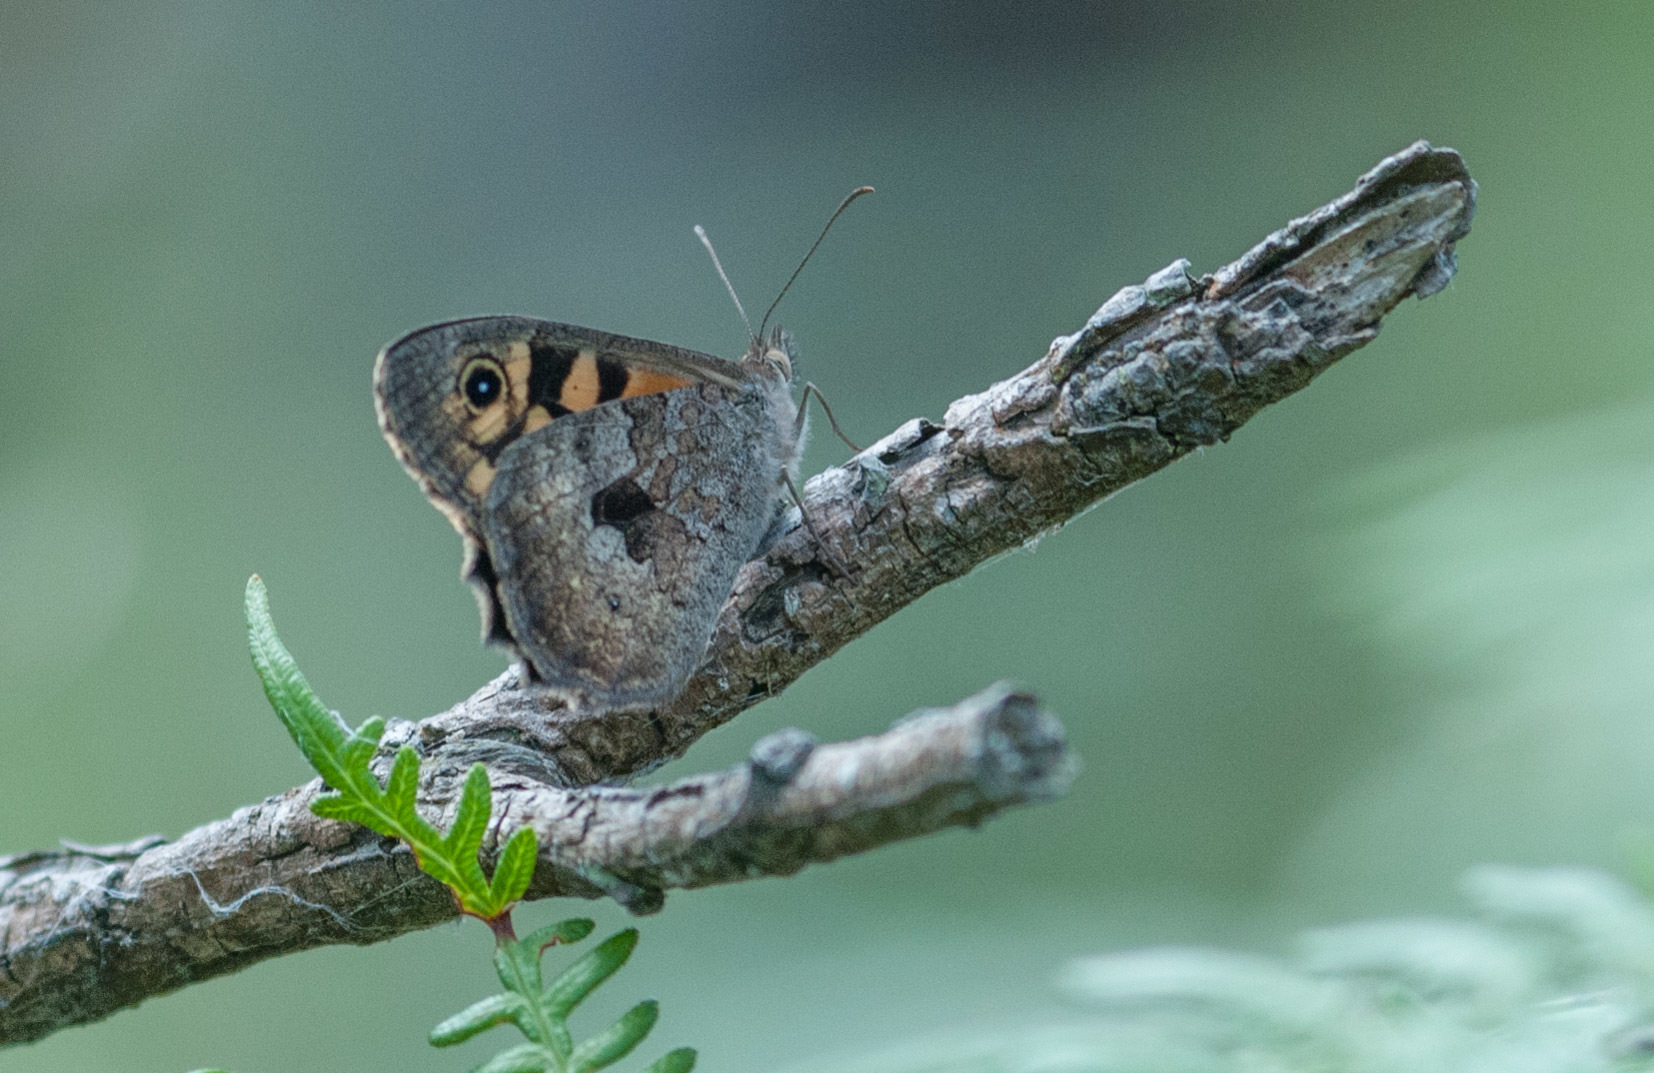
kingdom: Animalia
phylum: Arthropoda
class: Insecta
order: Lepidoptera
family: Nymphalidae
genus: Geitoneura
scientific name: Geitoneura klugii
